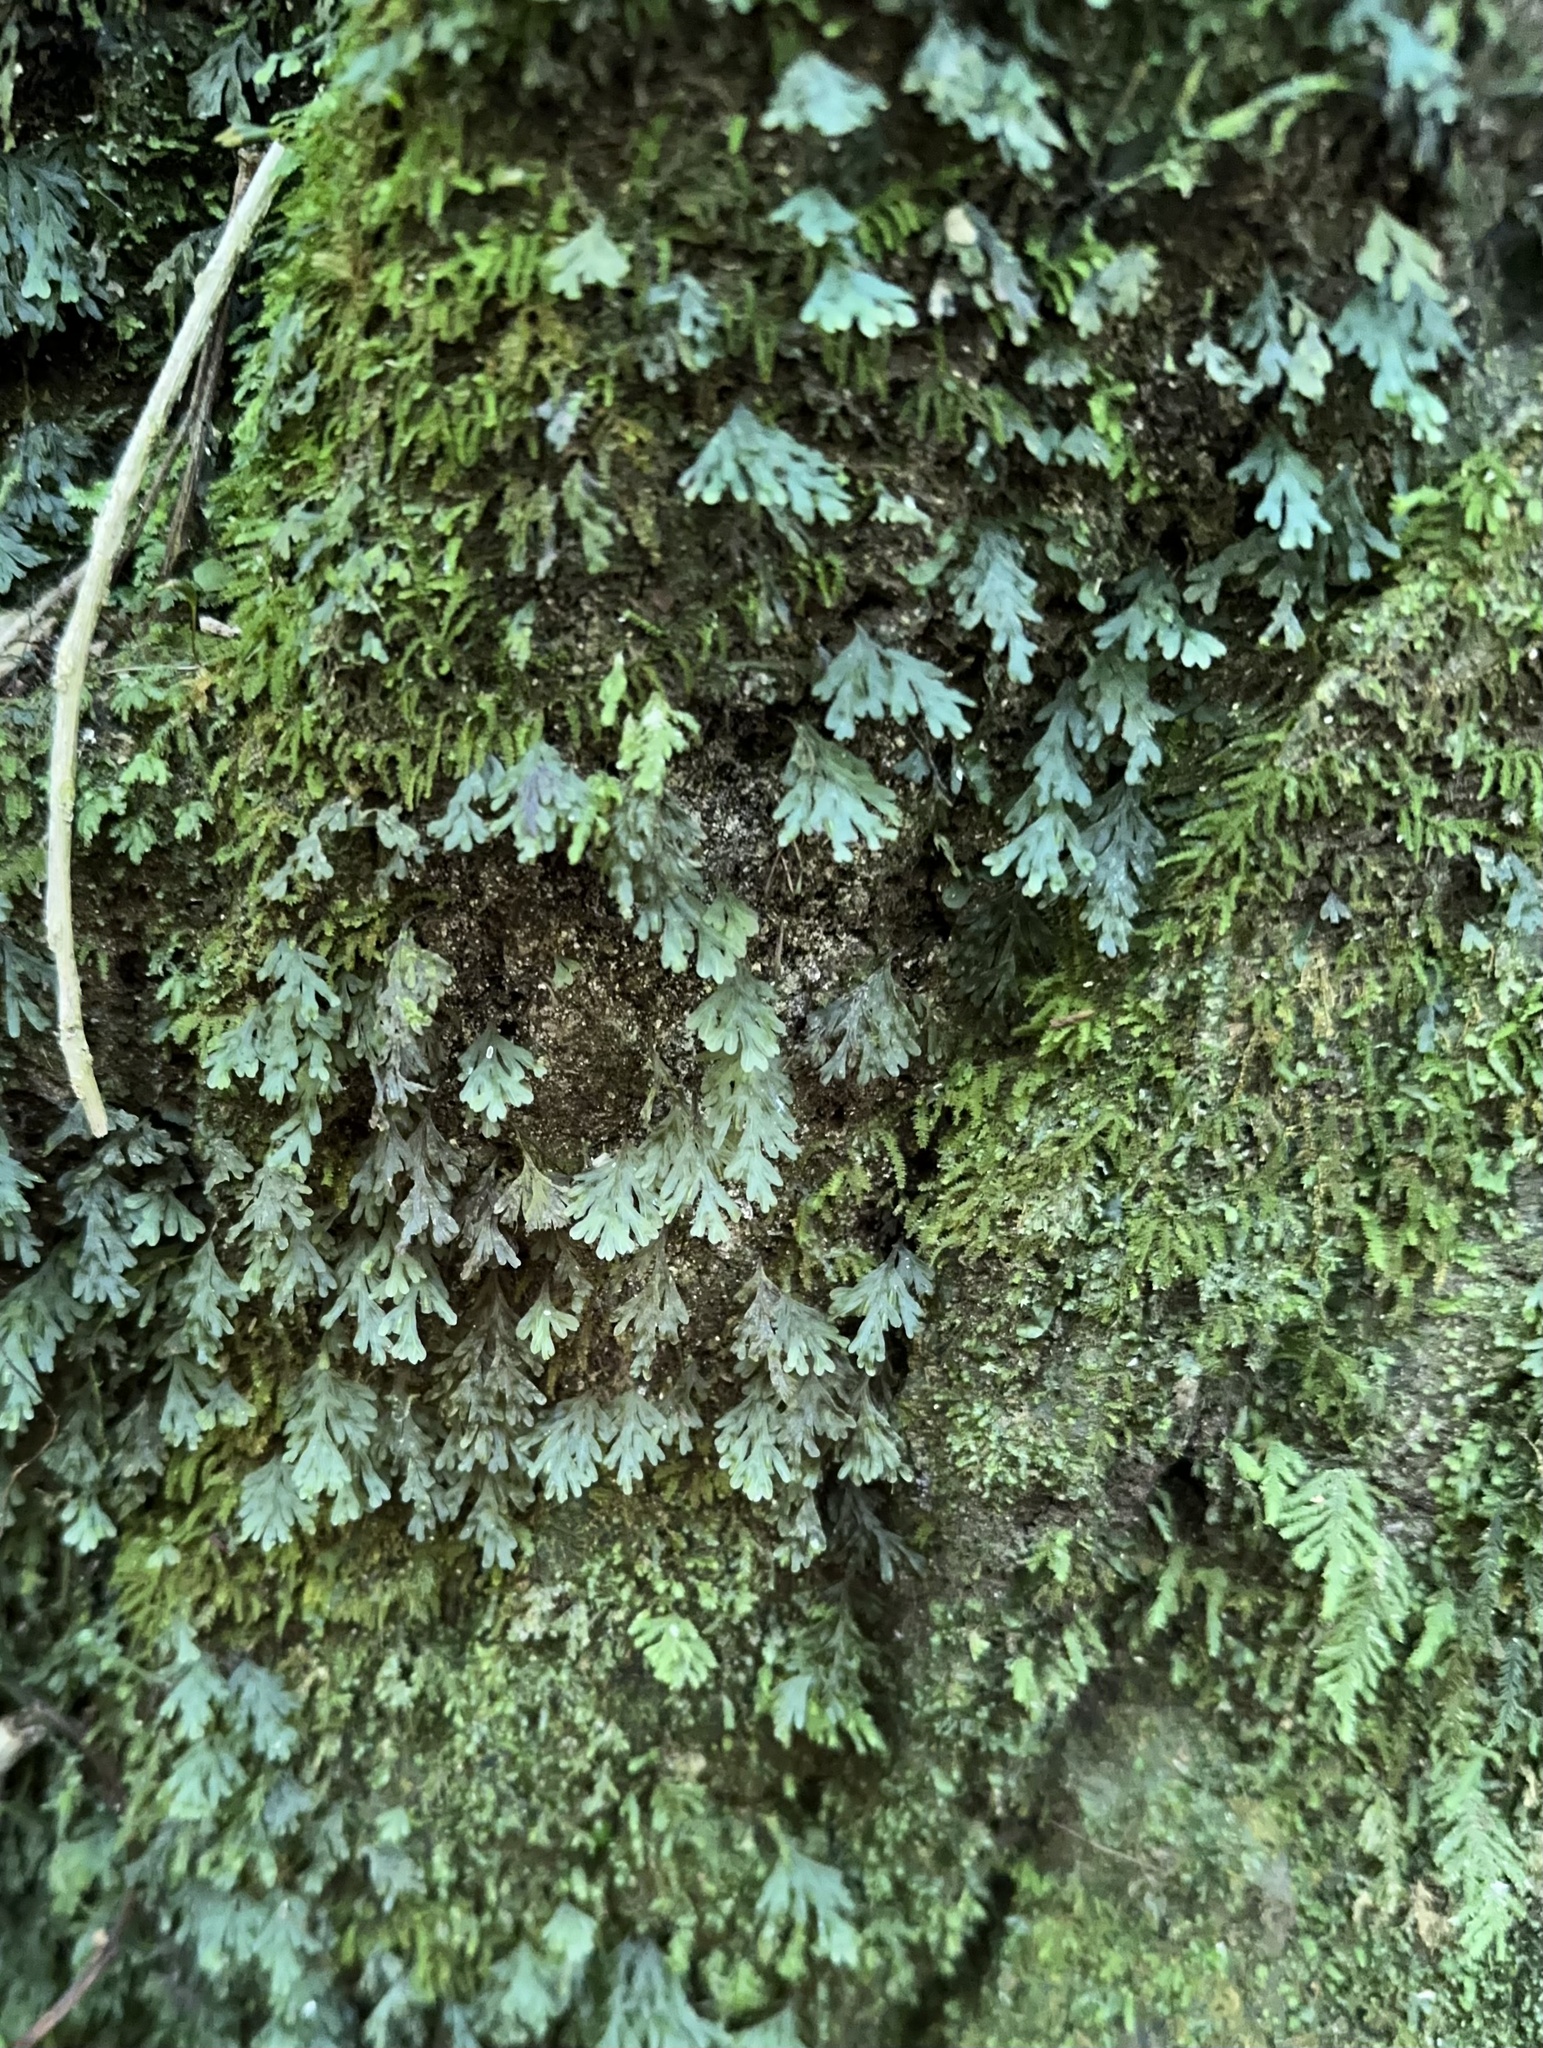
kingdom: Plantae
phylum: Tracheophyta
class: Polypodiopsida
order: Hymenophyllales
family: Hymenophyllaceae
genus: Polyphlebium
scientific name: Polyphlebium endlicherianum
